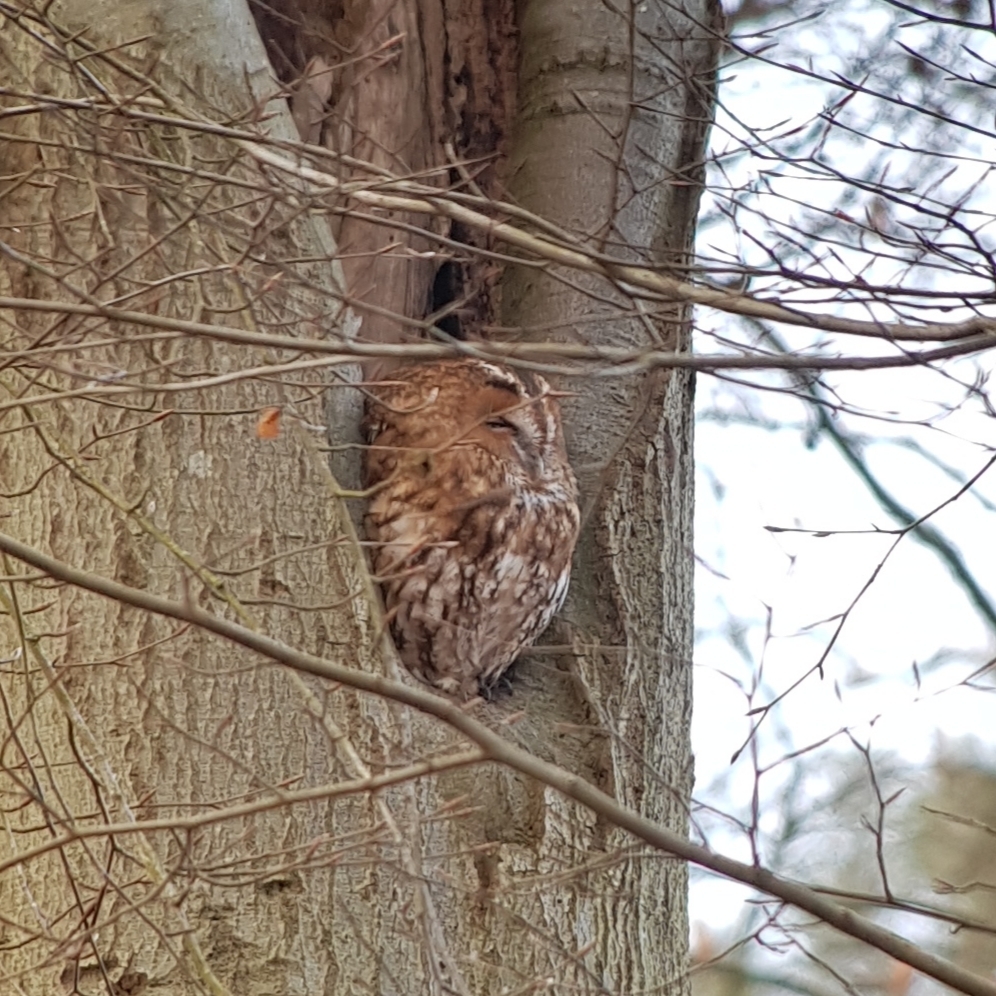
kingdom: Animalia
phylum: Chordata
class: Aves
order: Strigiformes
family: Strigidae
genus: Strix
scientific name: Strix aluco
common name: Tawny owl
